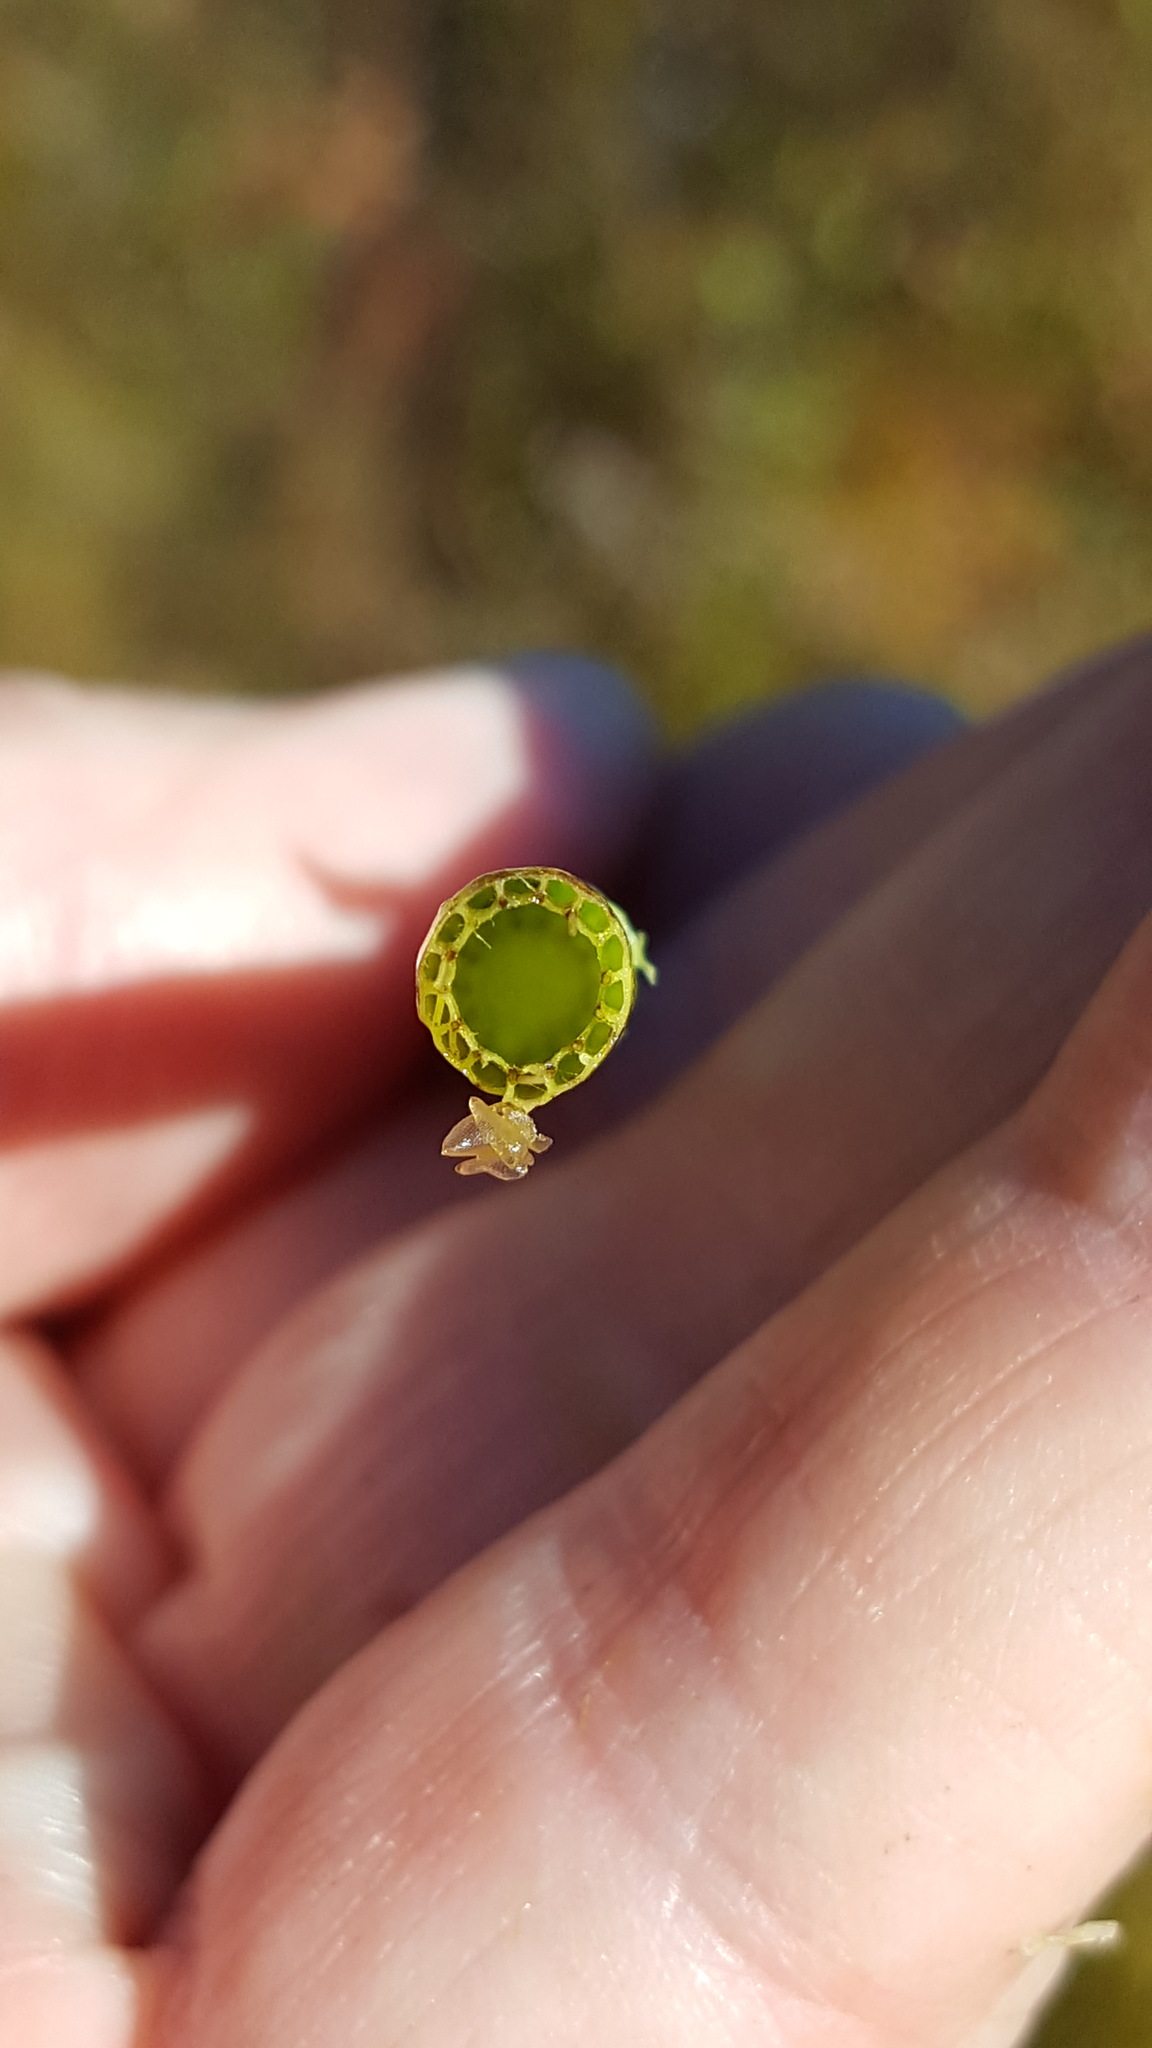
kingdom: Plantae
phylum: Tracheophyta
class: Polypodiopsida
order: Equisetales
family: Equisetaceae
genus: Equisetum
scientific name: Equisetum fluviatile
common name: Water horsetail
